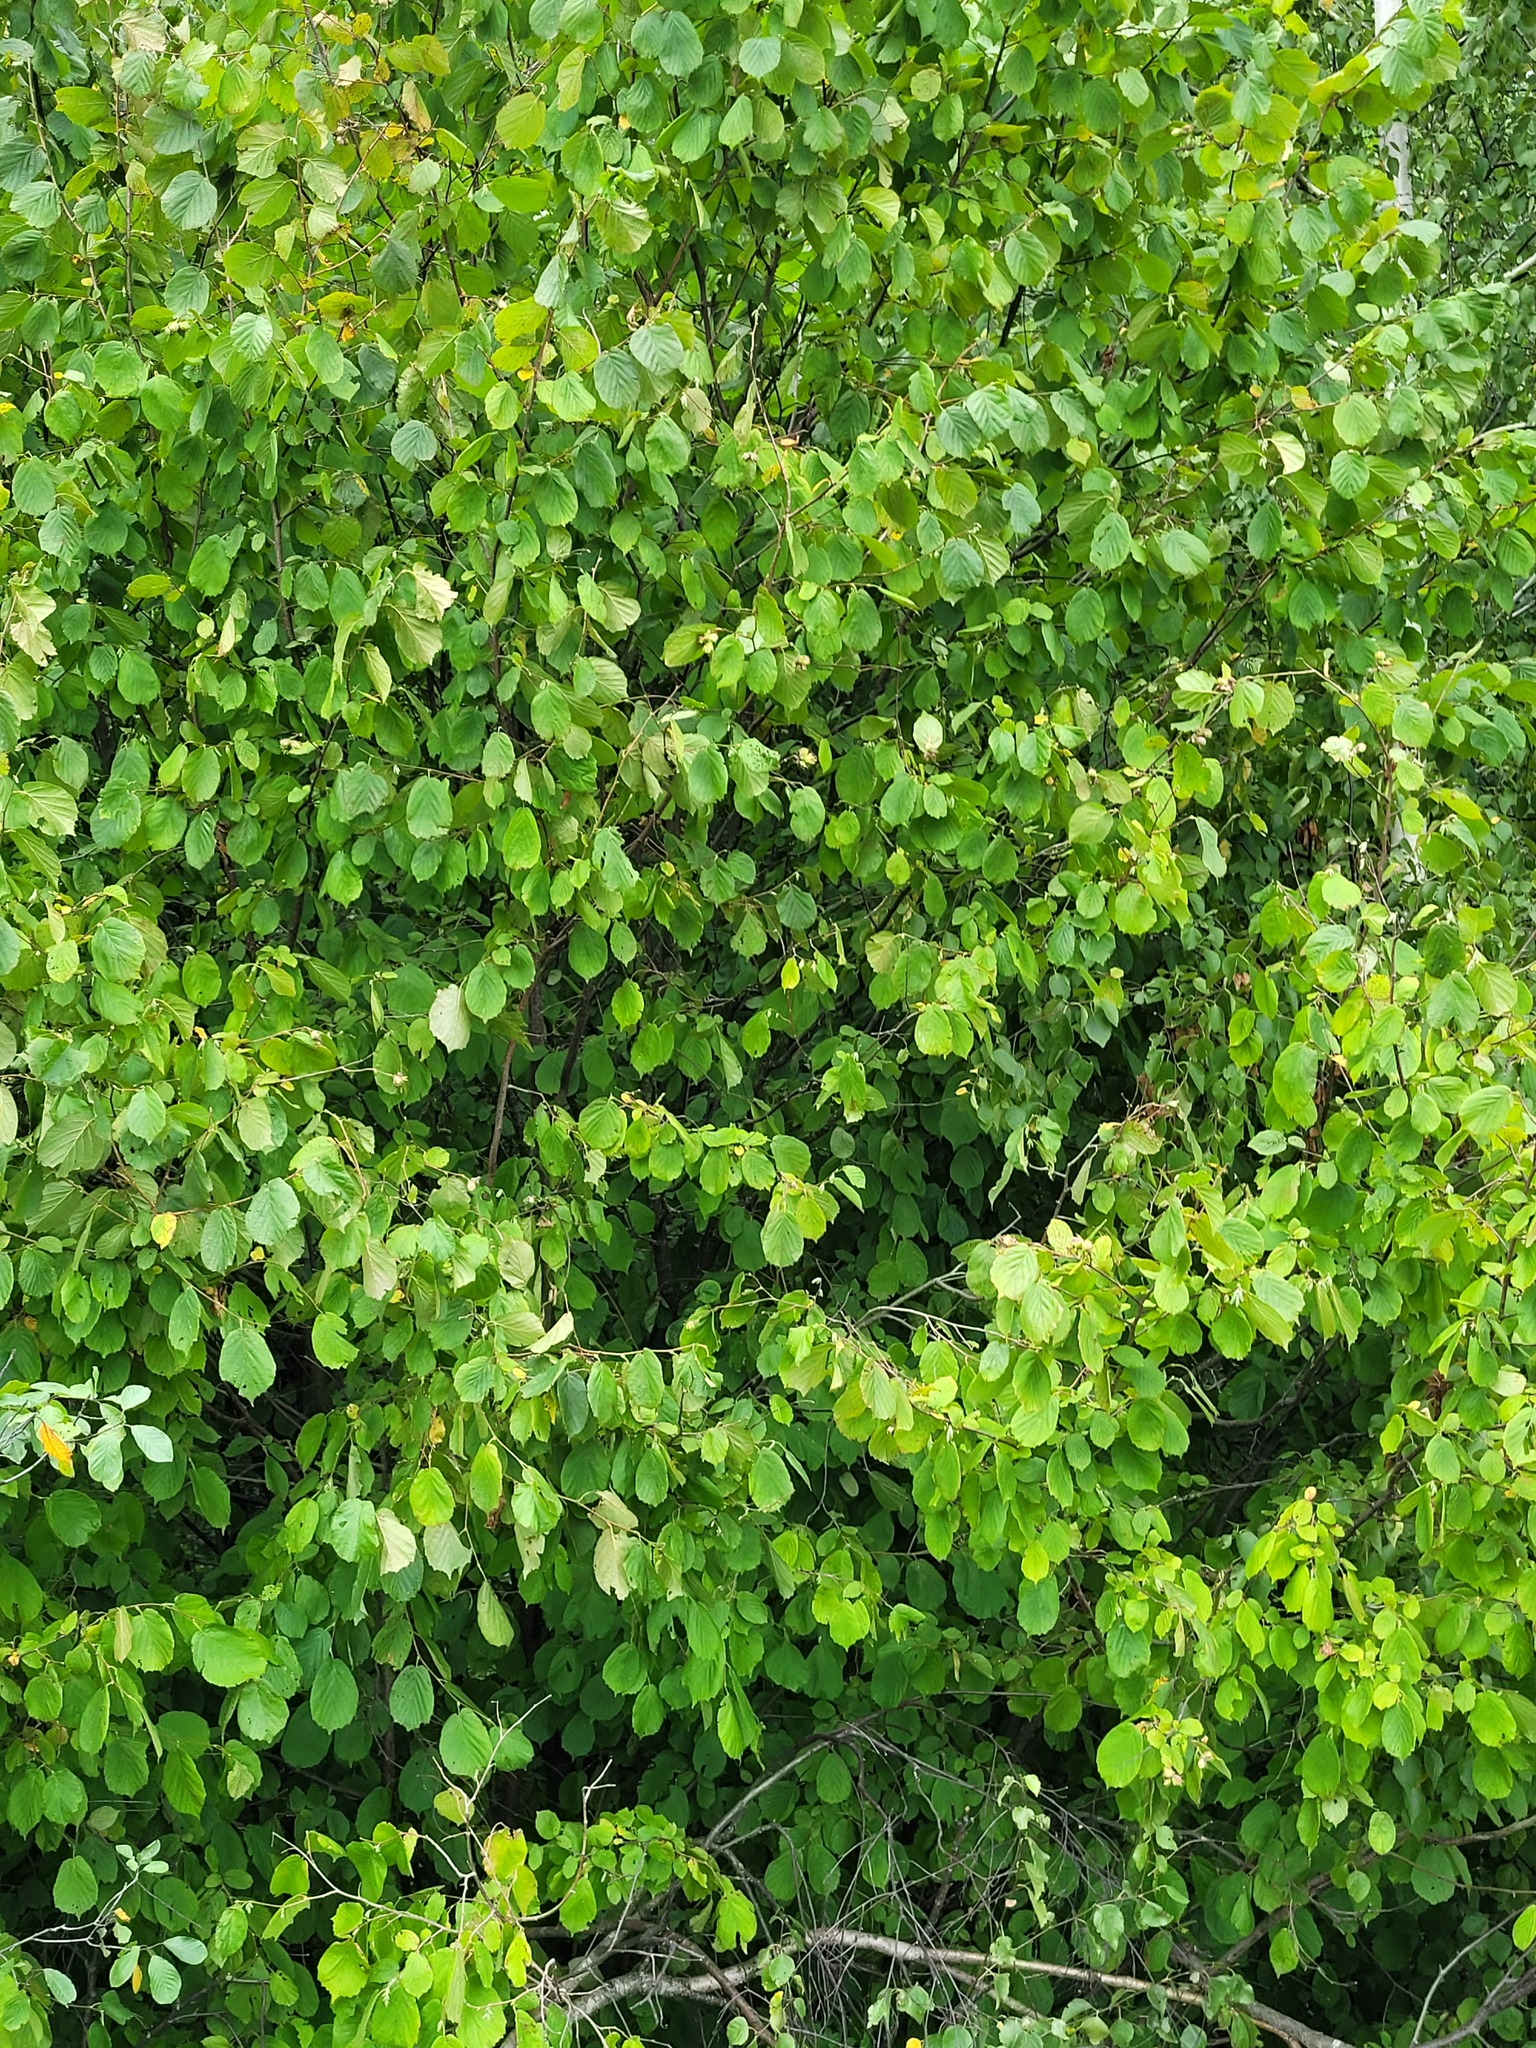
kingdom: Plantae
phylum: Tracheophyta
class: Magnoliopsida
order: Fagales
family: Betulaceae
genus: Corylus
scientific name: Corylus avellana
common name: European hazel
